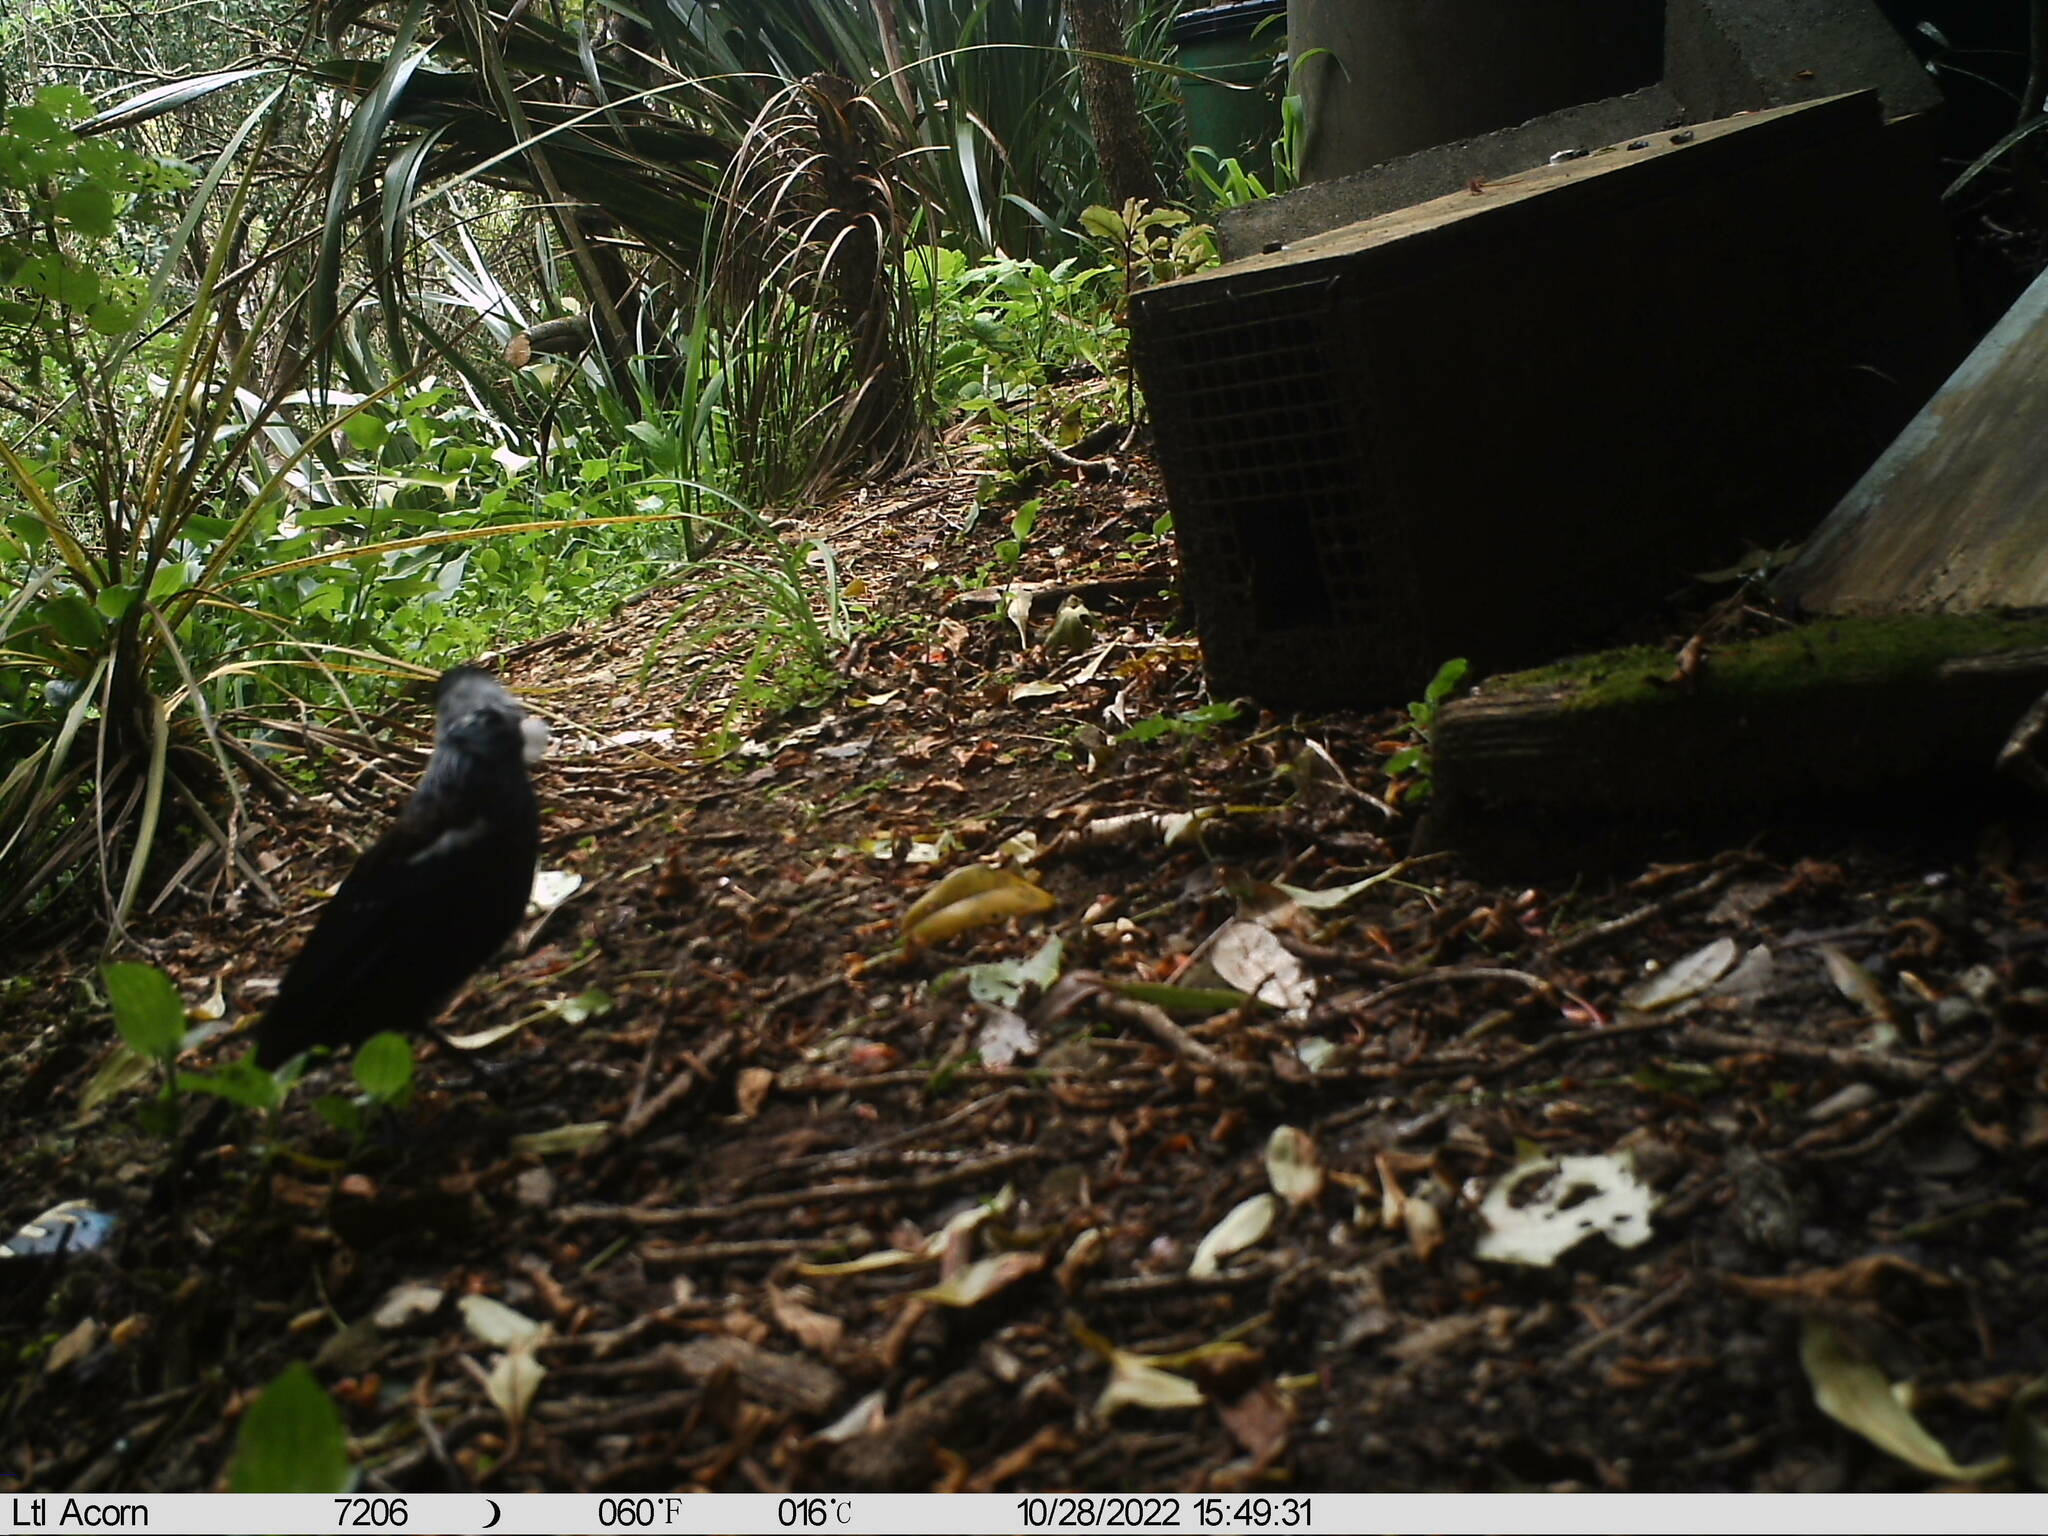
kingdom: Animalia
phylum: Chordata
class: Aves
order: Passeriformes
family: Meliphagidae
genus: Prosthemadera
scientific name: Prosthemadera novaeseelandiae
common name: Tui
